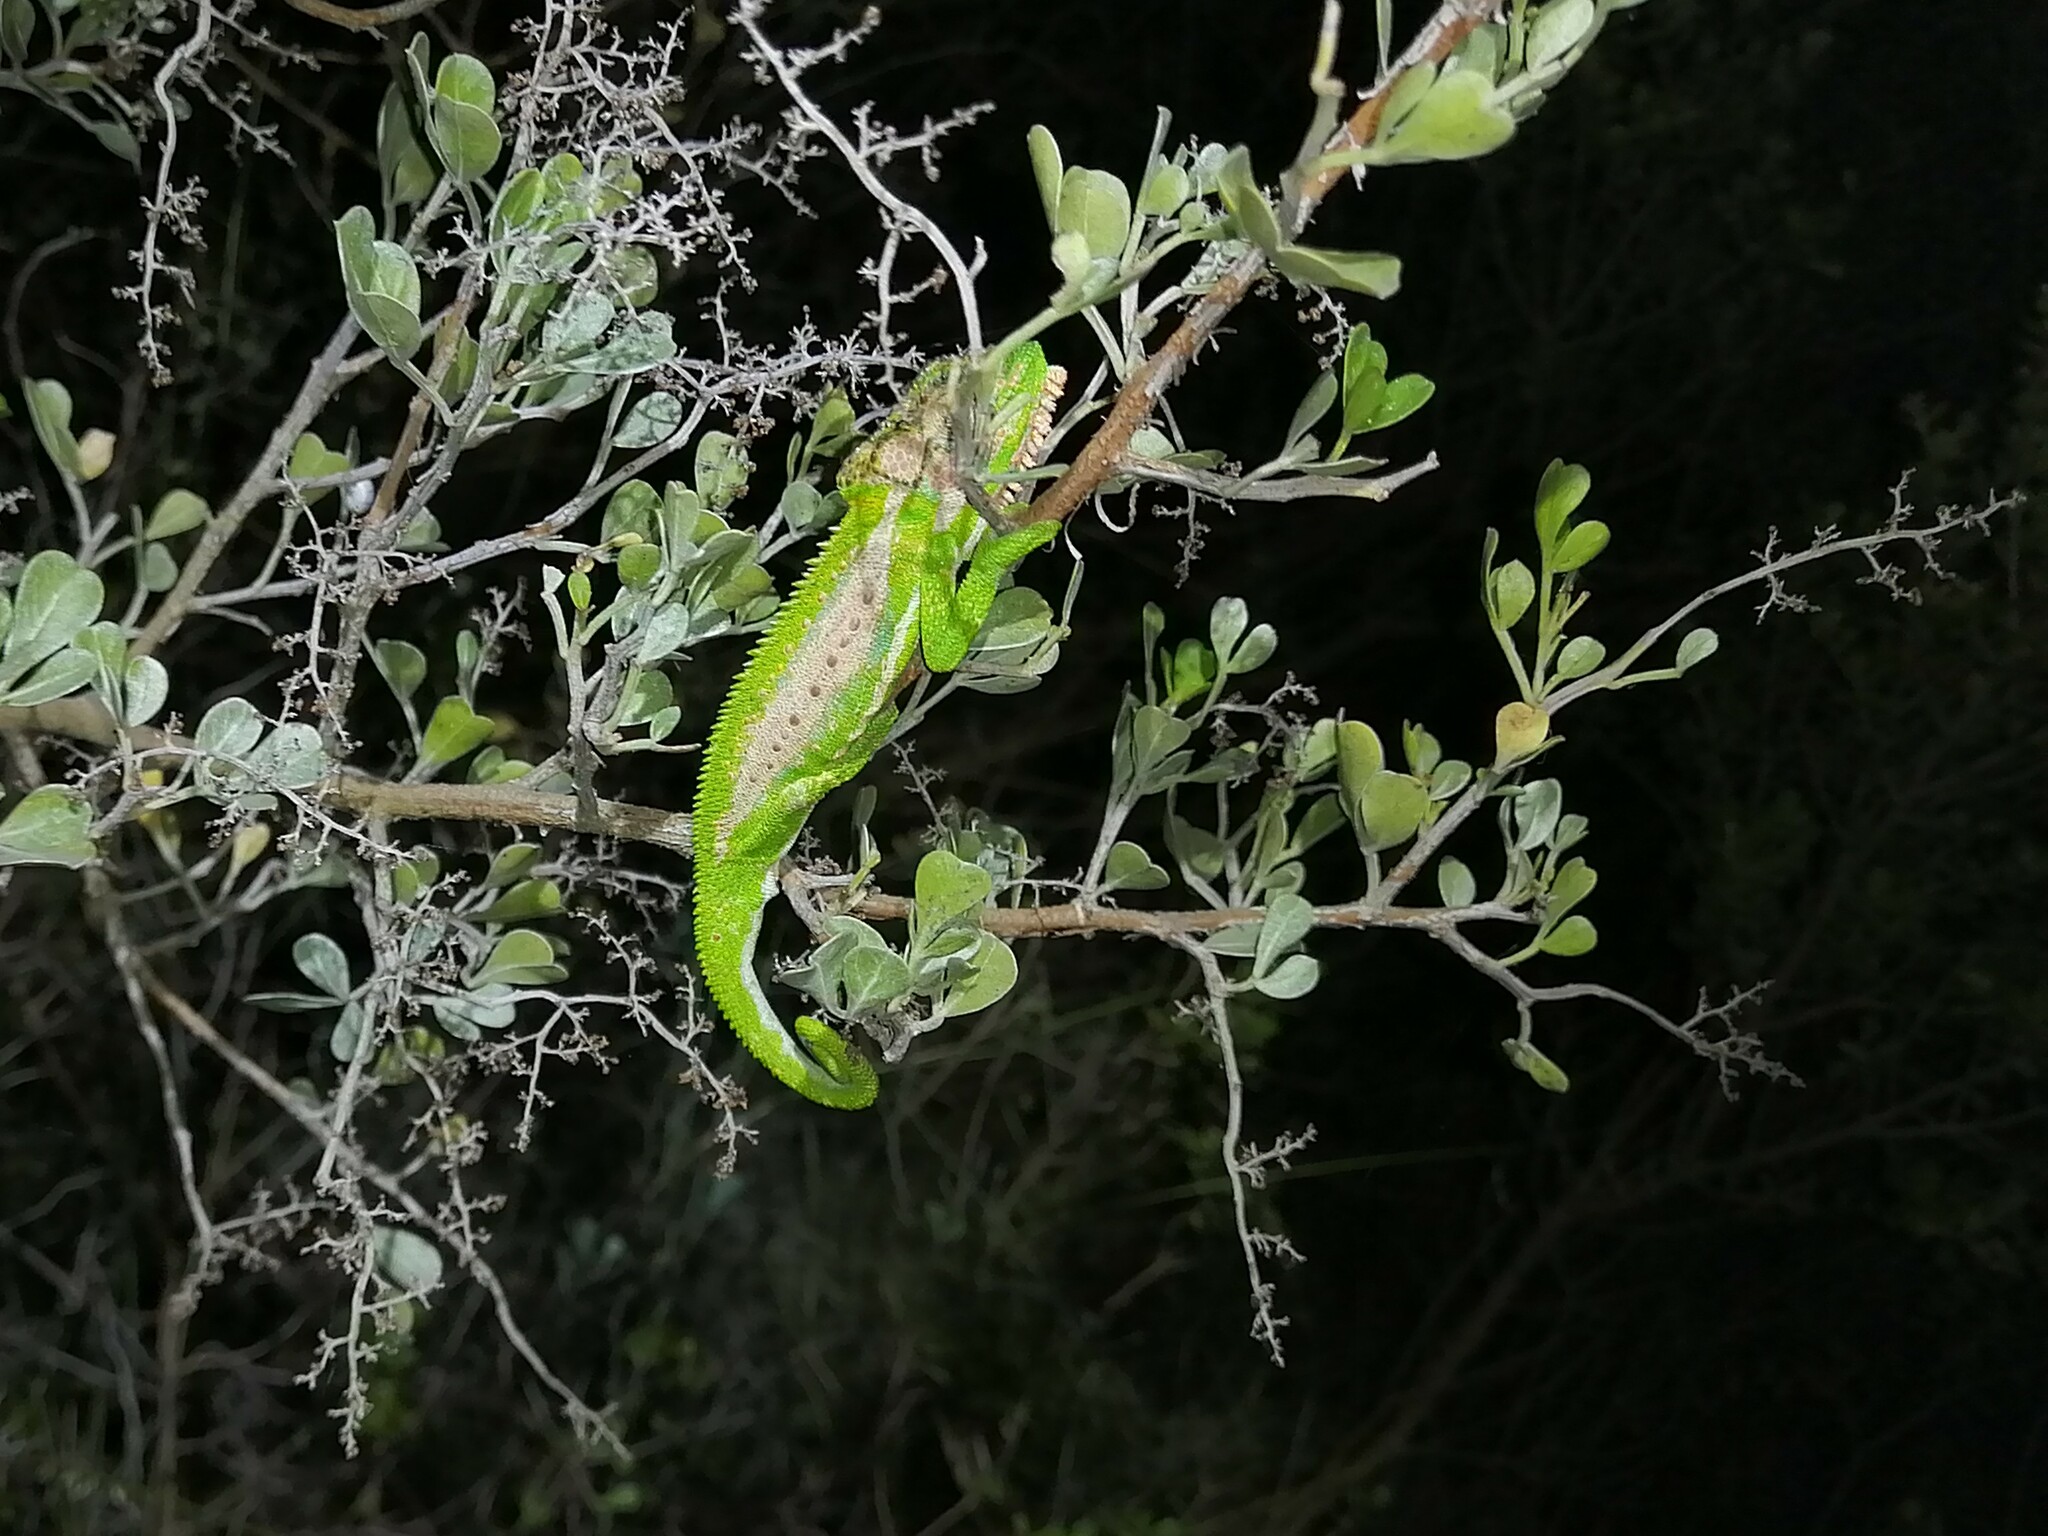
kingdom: Animalia
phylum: Chordata
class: Squamata
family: Chamaeleonidae
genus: Bradypodion
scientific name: Bradypodion pumilum
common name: Cape dwarf chameleon
